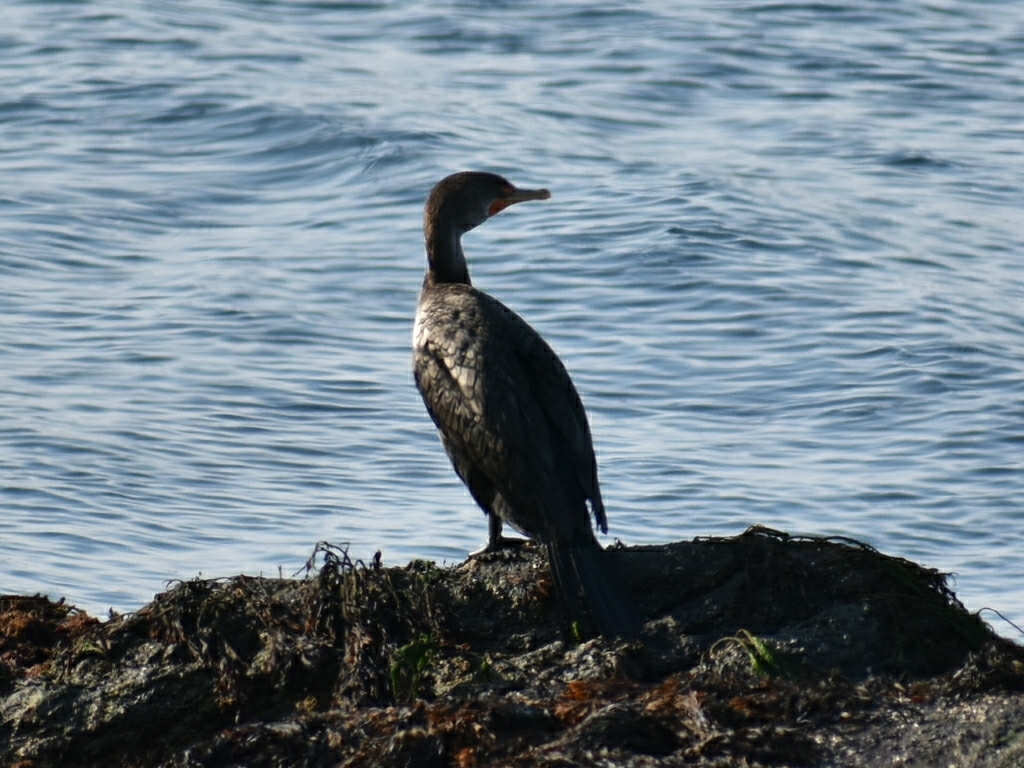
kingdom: Animalia
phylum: Chordata
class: Aves
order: Suliformes
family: Phalacrocoracidae
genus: Phalacrocorax
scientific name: Phalacrocorax auritus
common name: Double-crested cormorant
